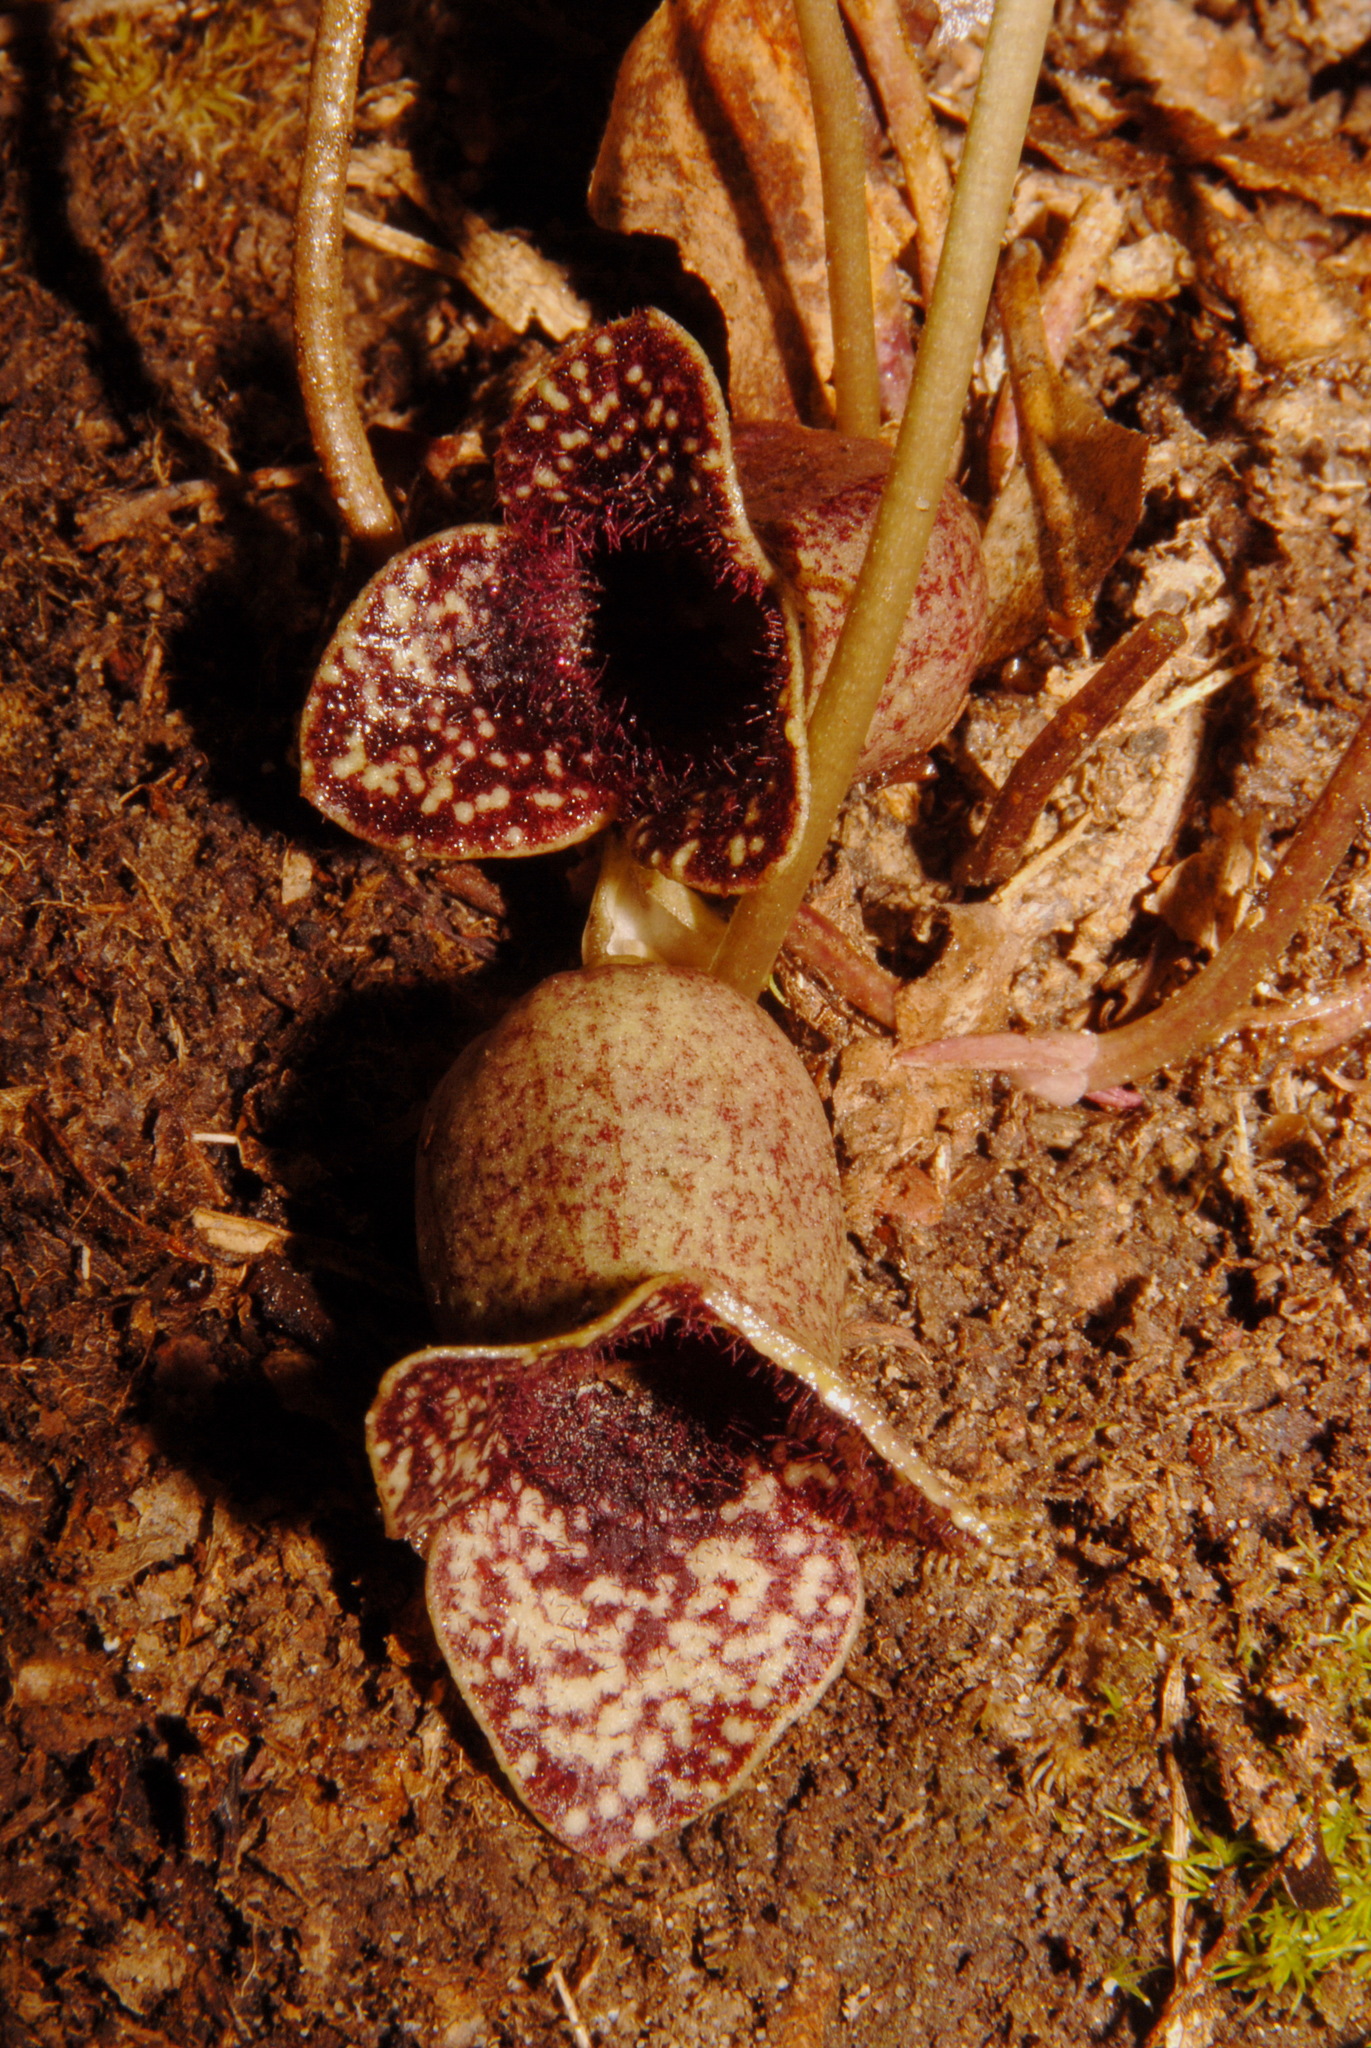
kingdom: Plantae
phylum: Tracheophyta
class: Magnoliopsida
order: Piperales
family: Aristolochiaceae
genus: Hexastylis
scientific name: Hexastylis shuttleworthii
